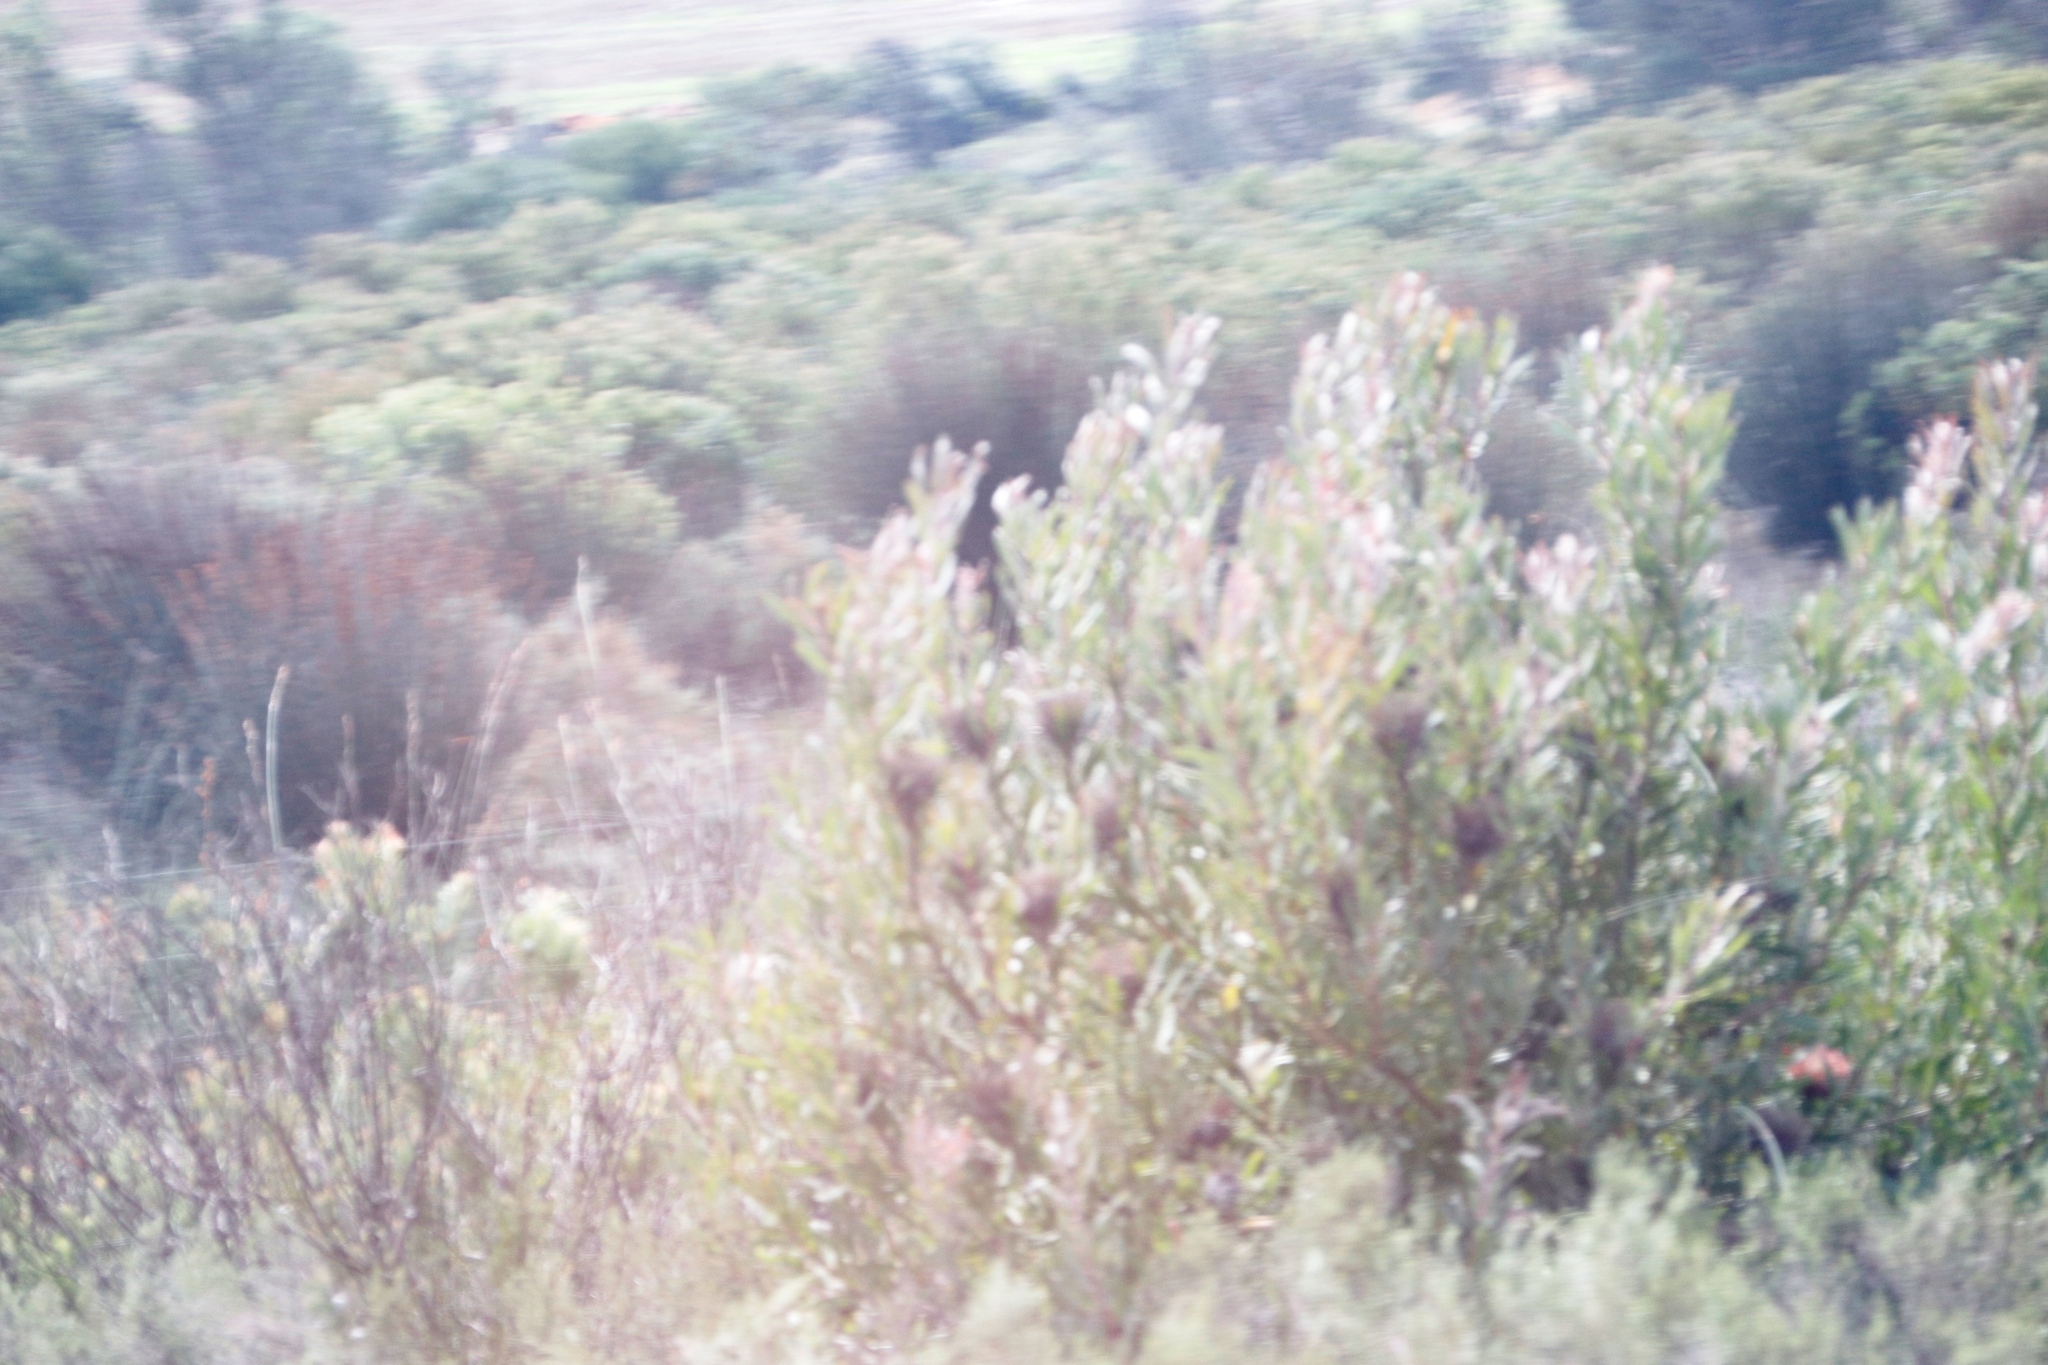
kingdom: Plantae
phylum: Tracheophyta
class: Magnoliopsida
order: Proteales
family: Proteaceae
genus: Protea
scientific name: Protea susannae
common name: Foetid-leaf sugarbush
